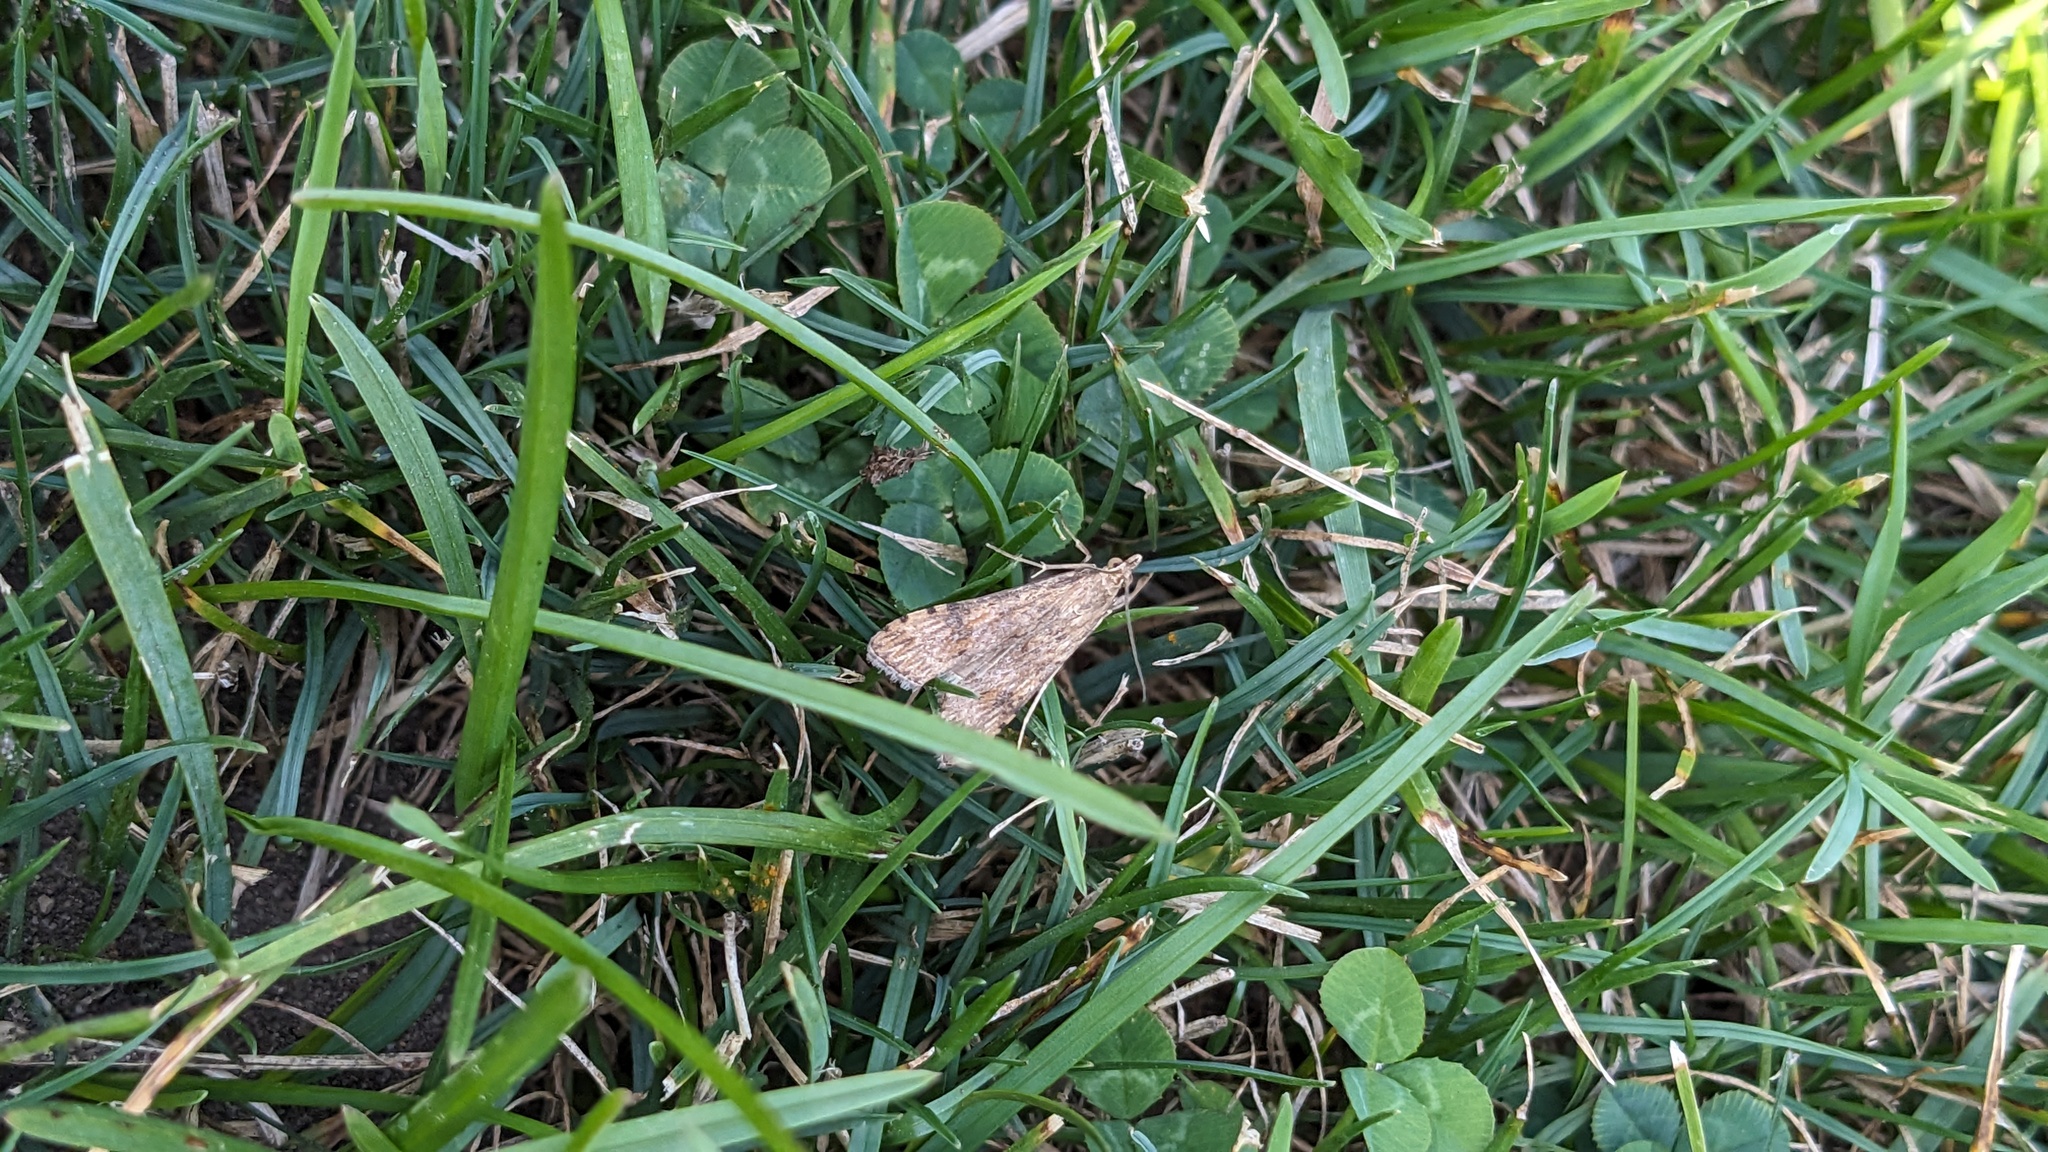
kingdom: Animalia
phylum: Arthropoda
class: Insecta
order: Lepidoptera
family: Crambidae
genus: Nomophila
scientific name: Nomophila nearctica
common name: American rush veneer
